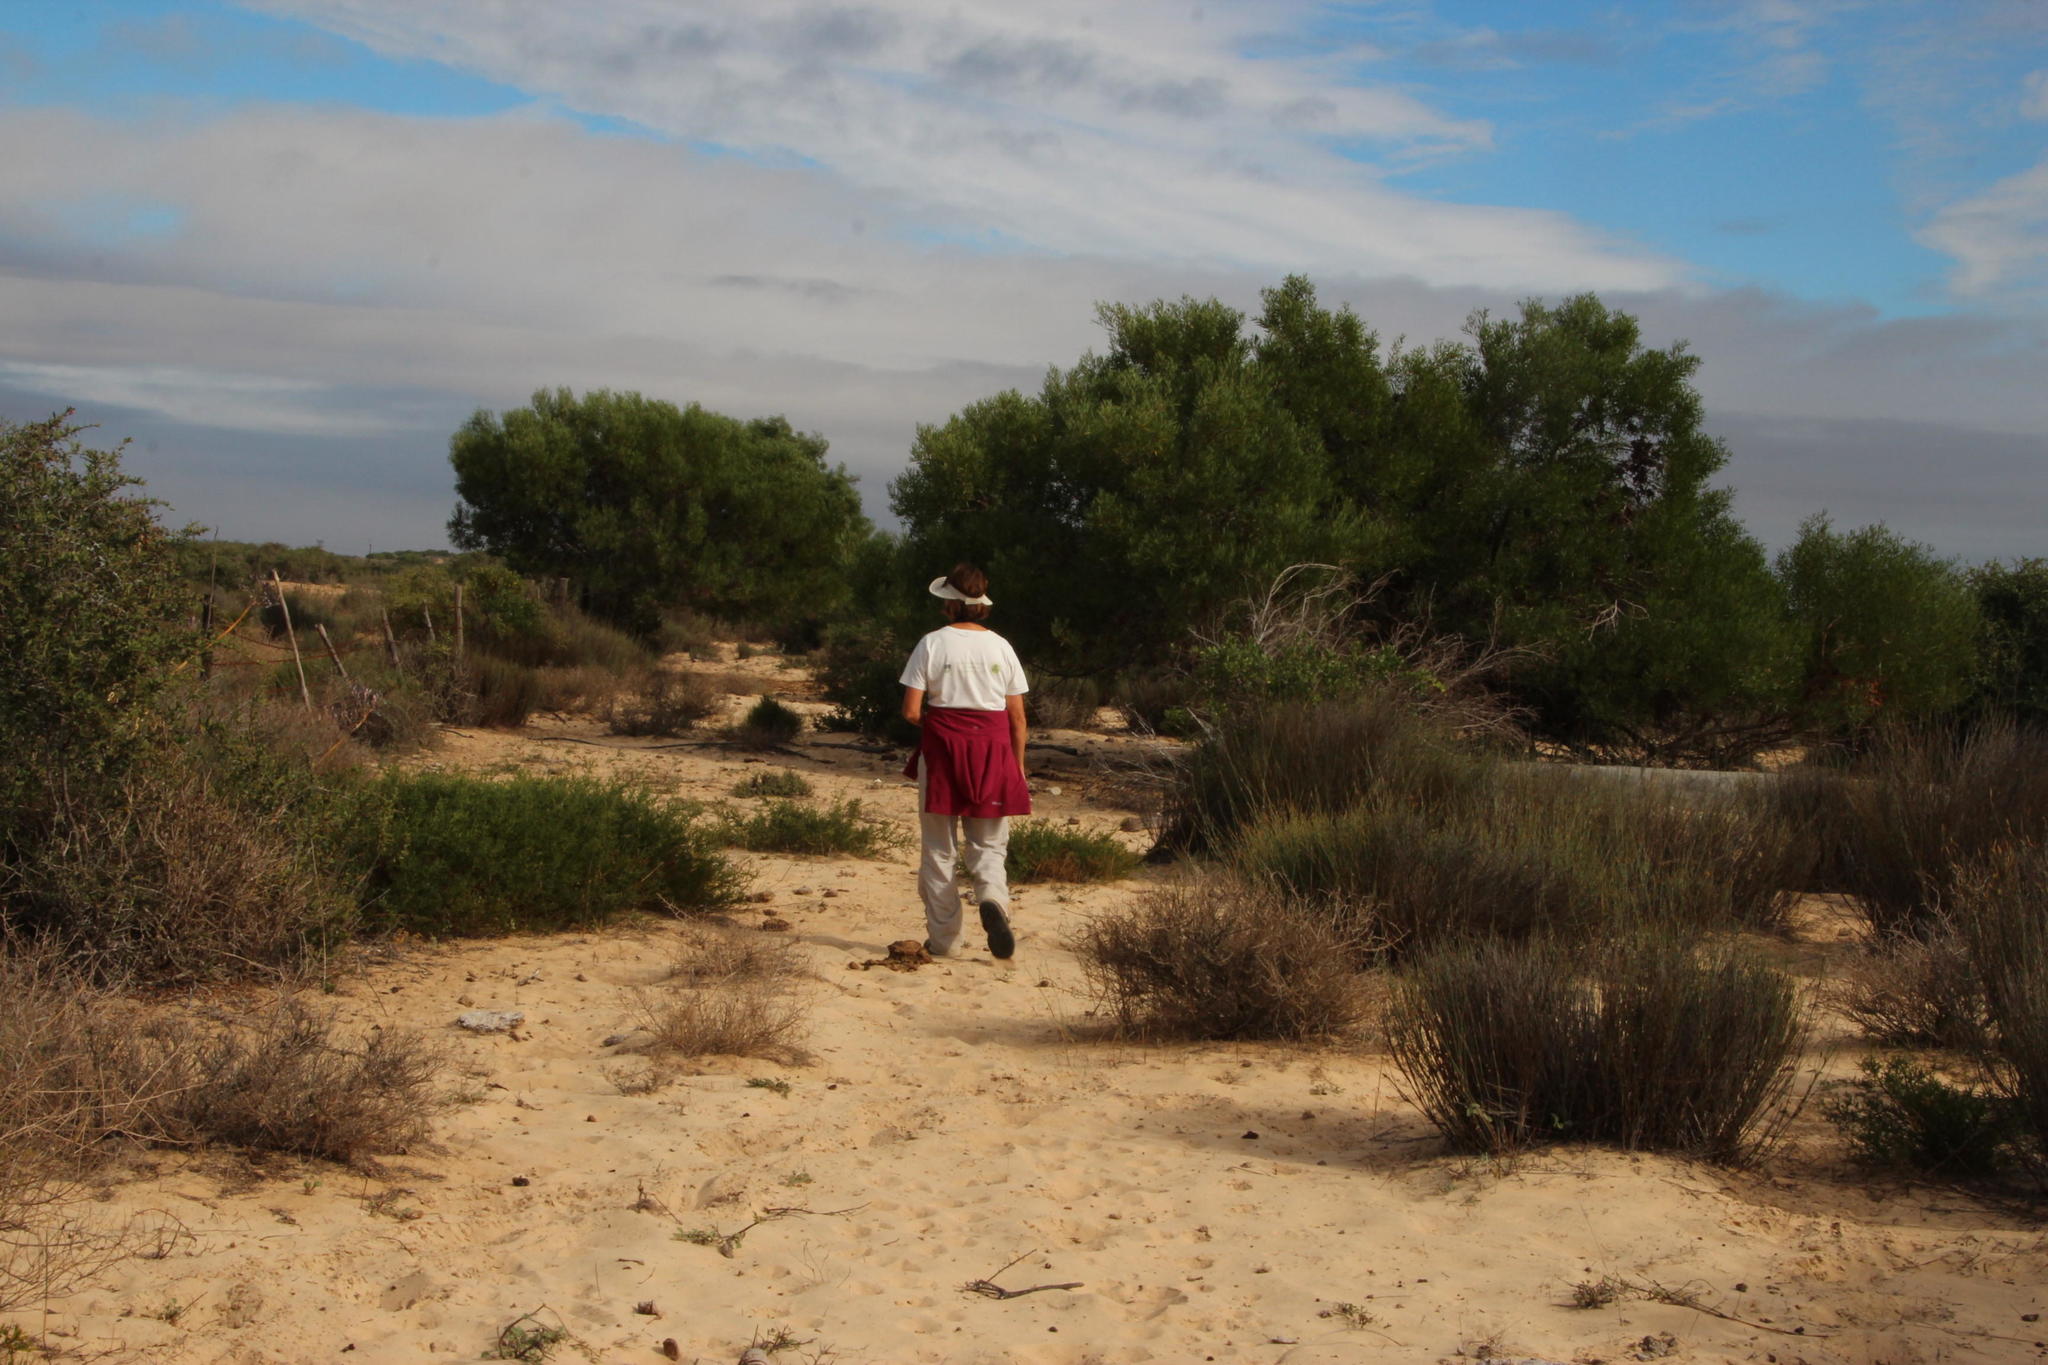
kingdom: Plantae
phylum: Tracheophyta
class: Magnoliopsida
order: Fabales
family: Fabaceae
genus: Acacia
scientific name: Acacia cyclops
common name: Coastal wattle
